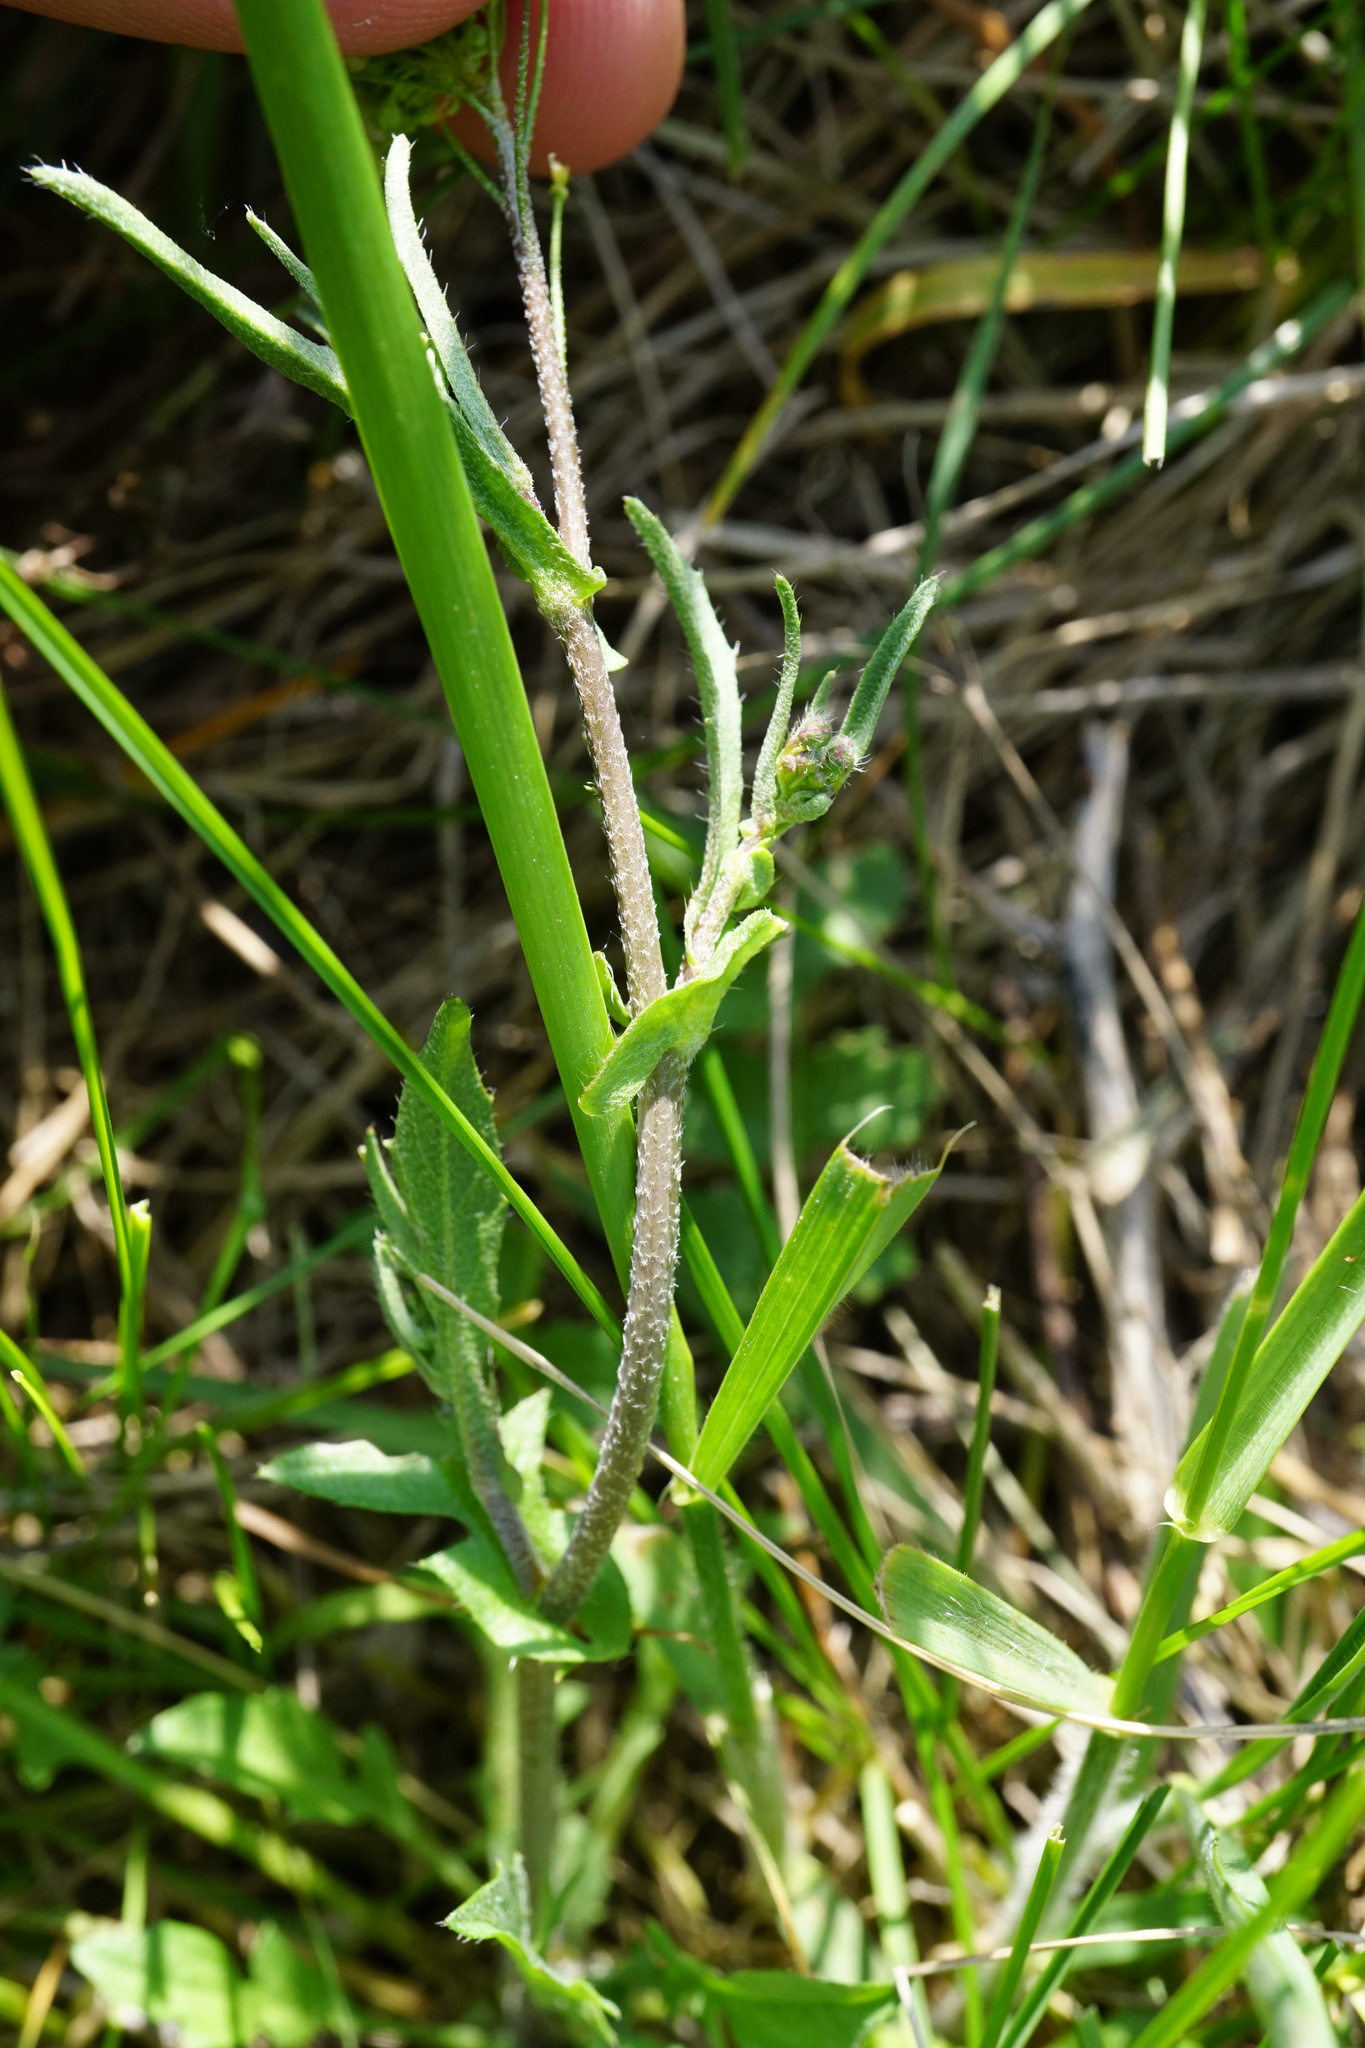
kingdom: Plantae
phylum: Tracheophyta
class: Magnoliopsida
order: Brassicales
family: Brassicaceae
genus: Capsella
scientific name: Capsella bursa-pastoris
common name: Shepherd's purse
